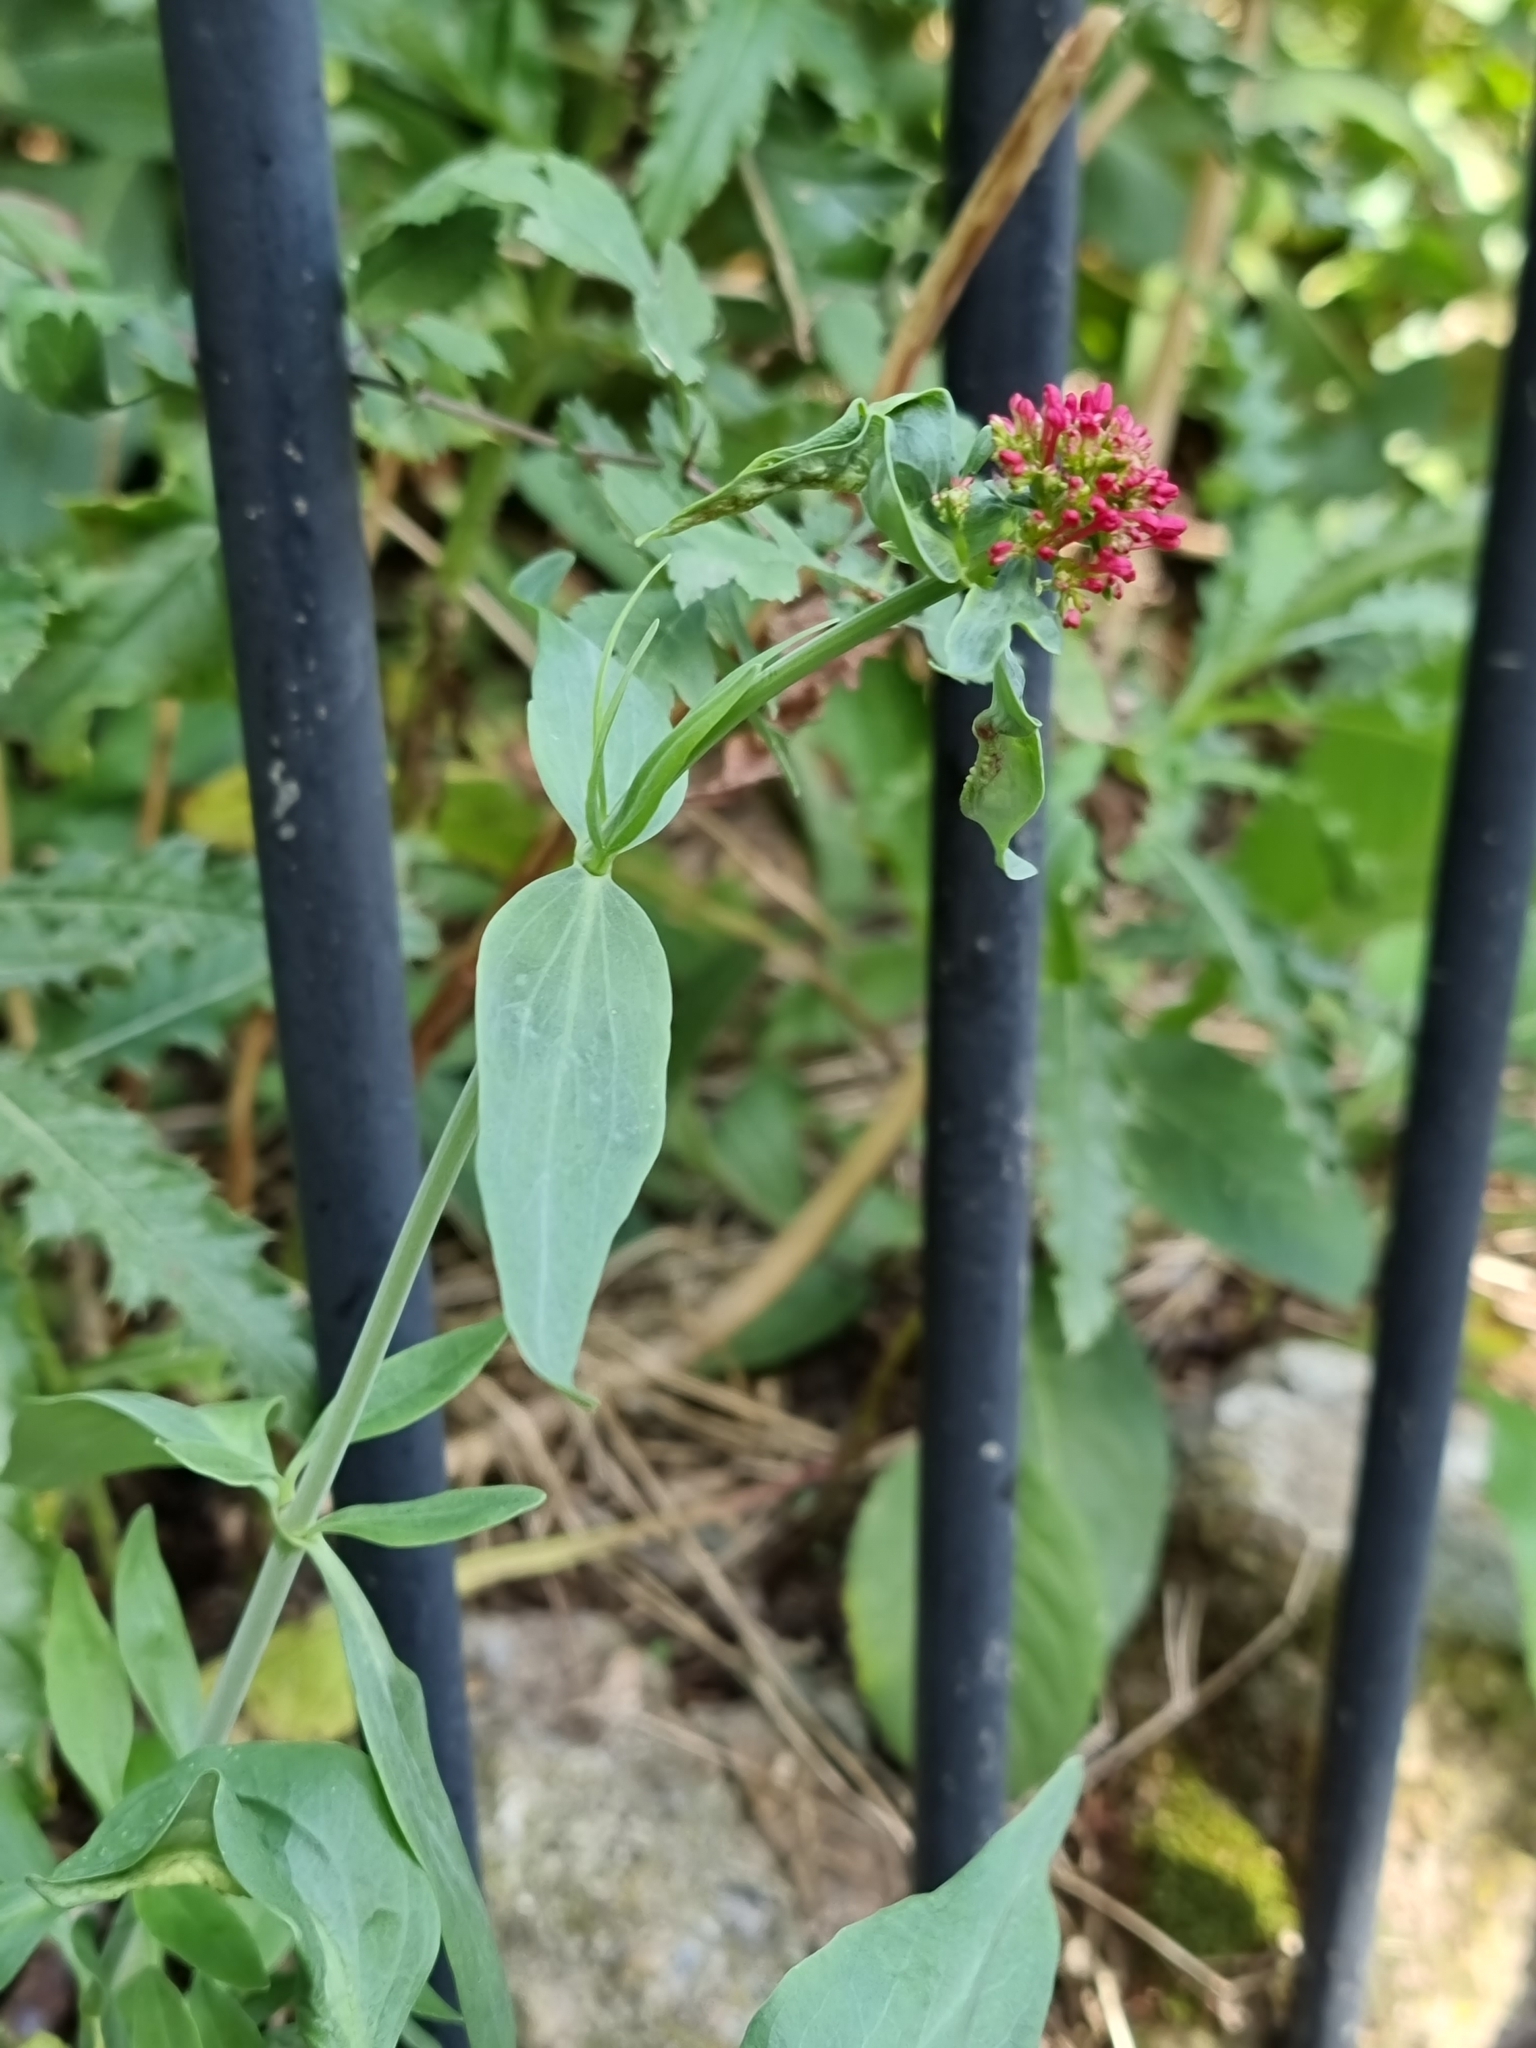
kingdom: Plantae
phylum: Tracheophyta
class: Magnoliopsida
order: Dipsacales
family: Caprifoliaceae
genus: Centranthus
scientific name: Centranthus ruber
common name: Red valerian
